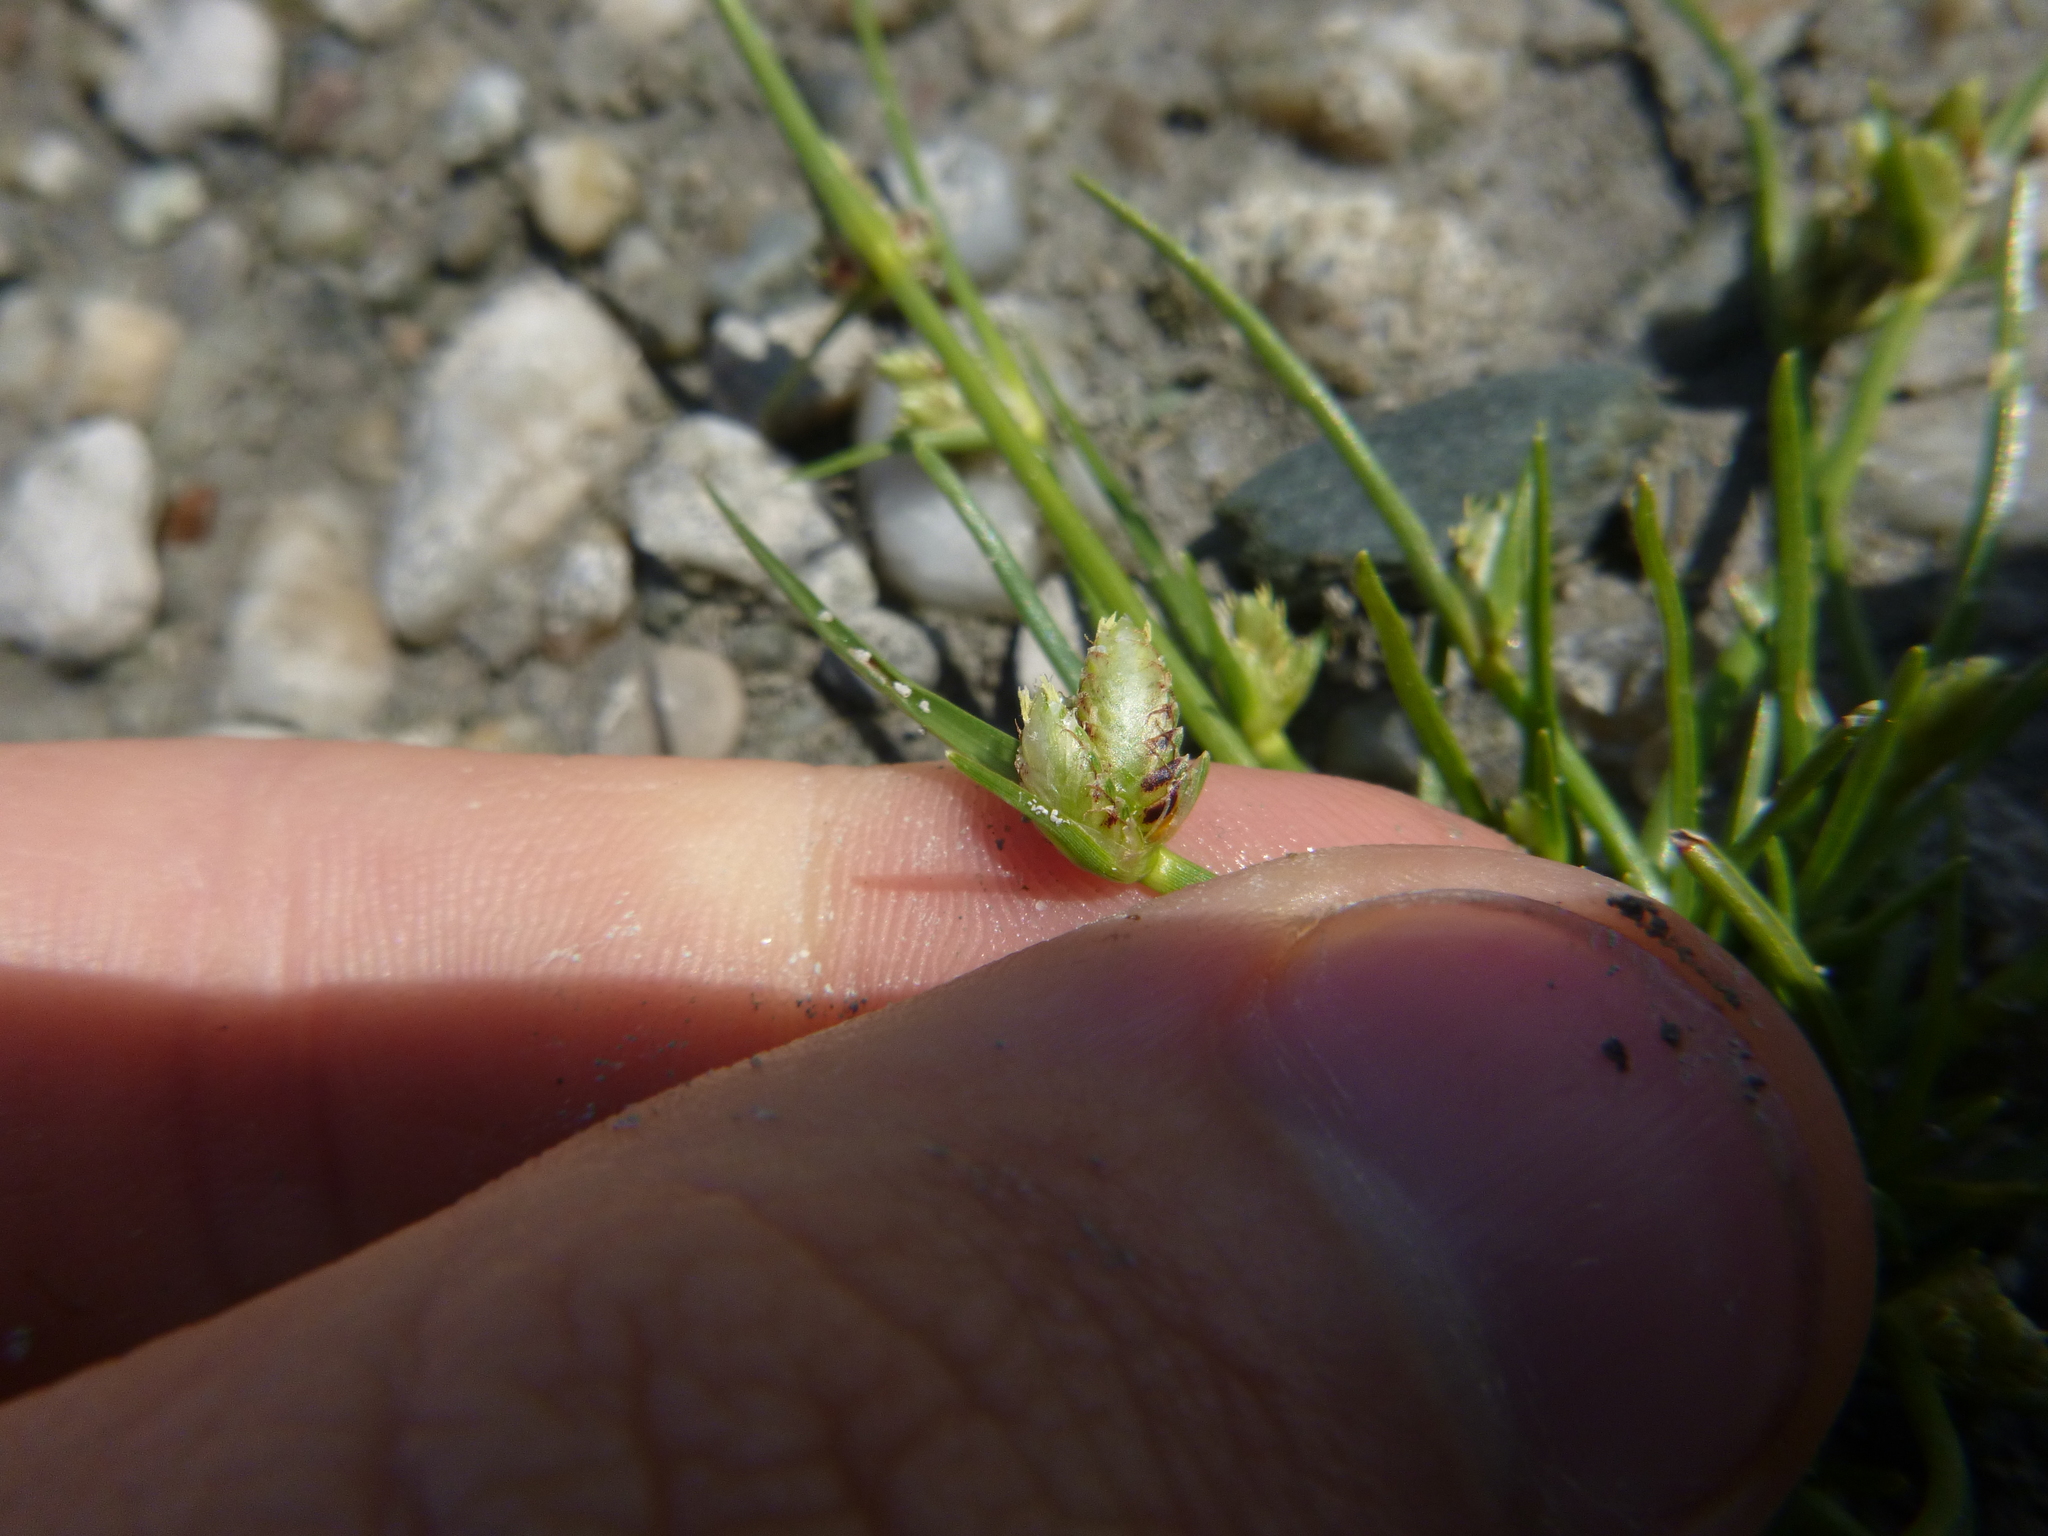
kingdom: Plantae
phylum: Tracheophyta
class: Liliopsida
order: Poales
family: Cyperaceae
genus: Cyperus
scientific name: Cyperus pannonicus
